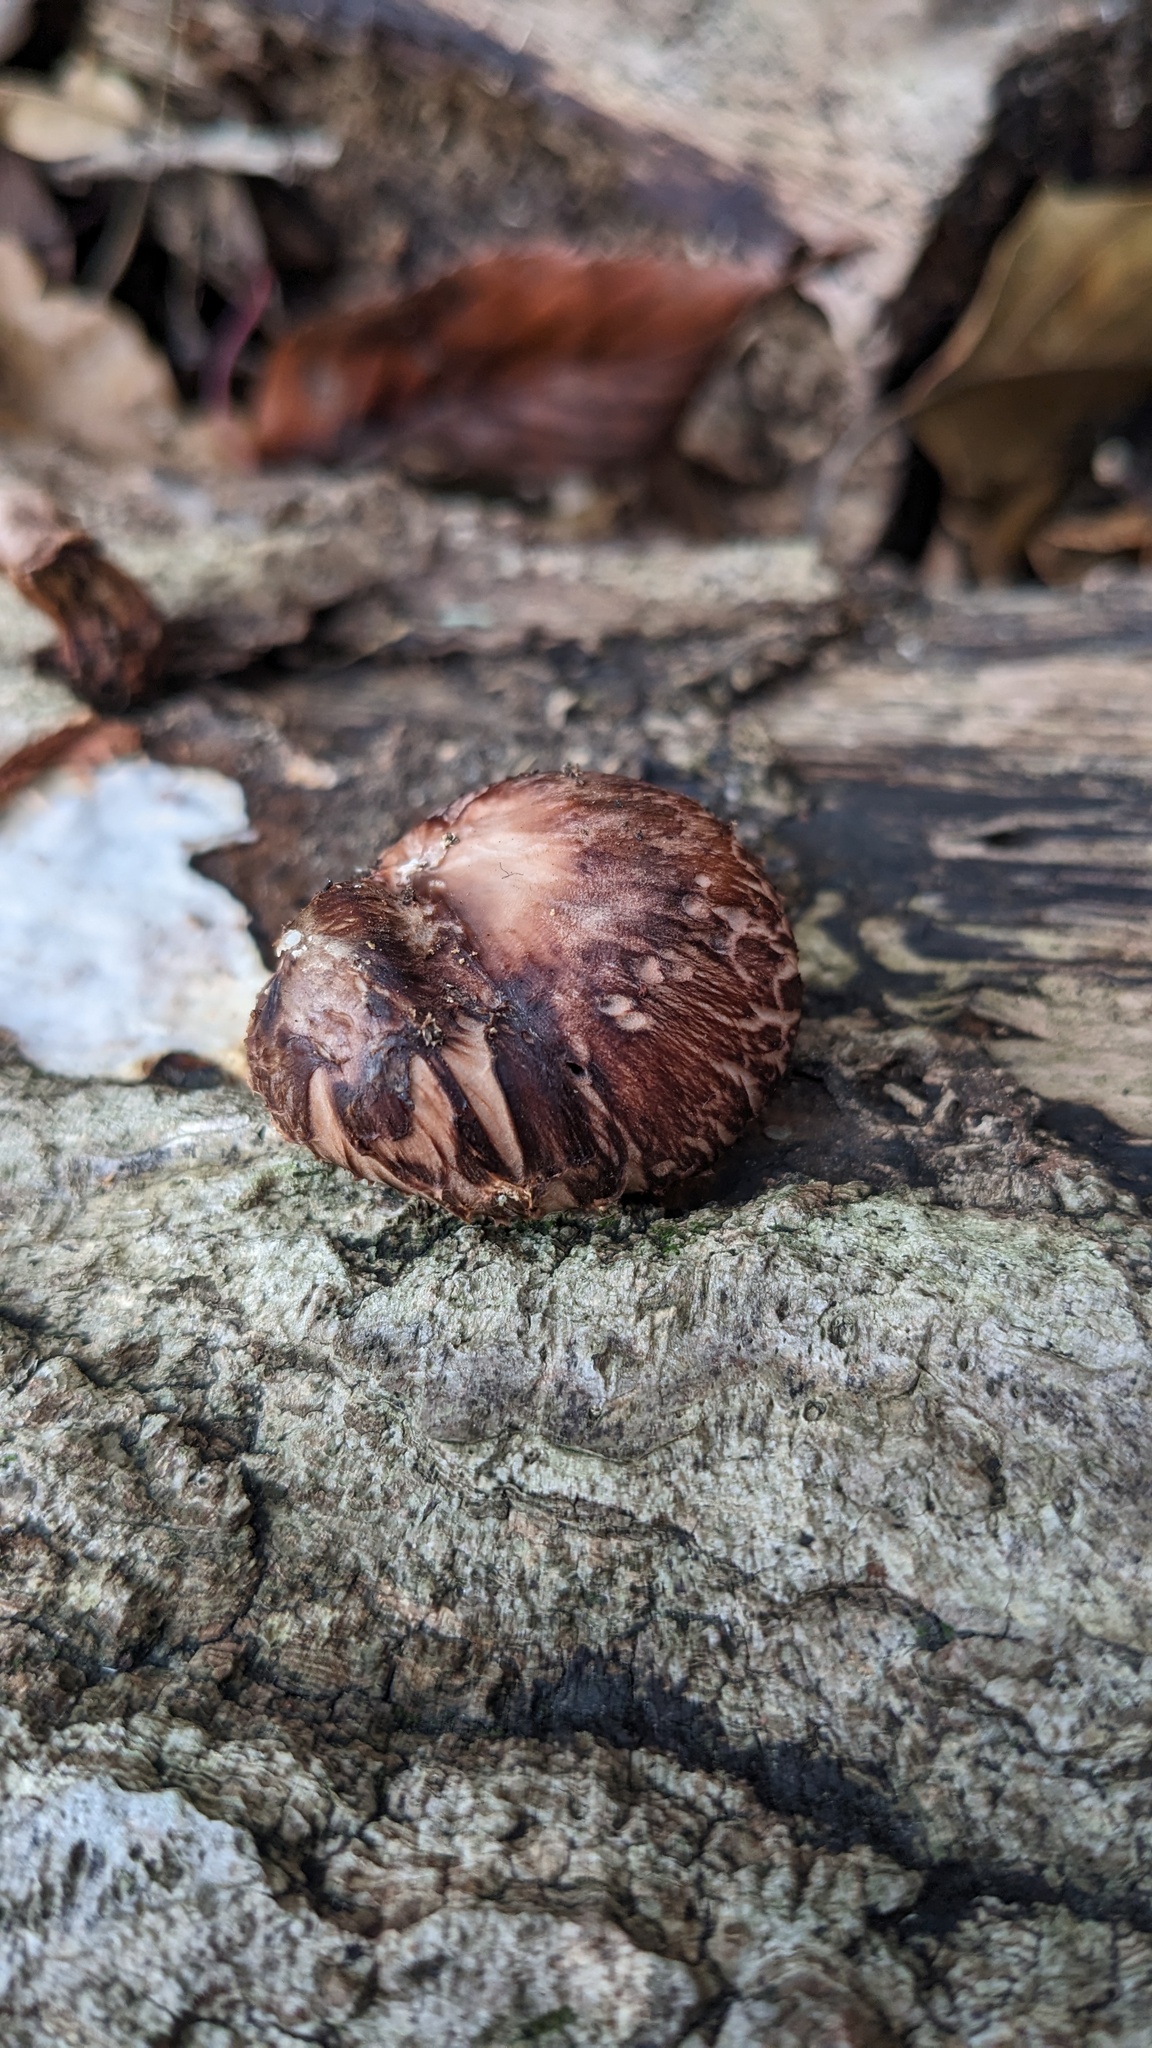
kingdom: Fungi
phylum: Basidiomycota
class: Agaricomycetes
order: Agaricales
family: Omphalotaceae
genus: Lentinula
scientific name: Lentinula edodes
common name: Shiitake
